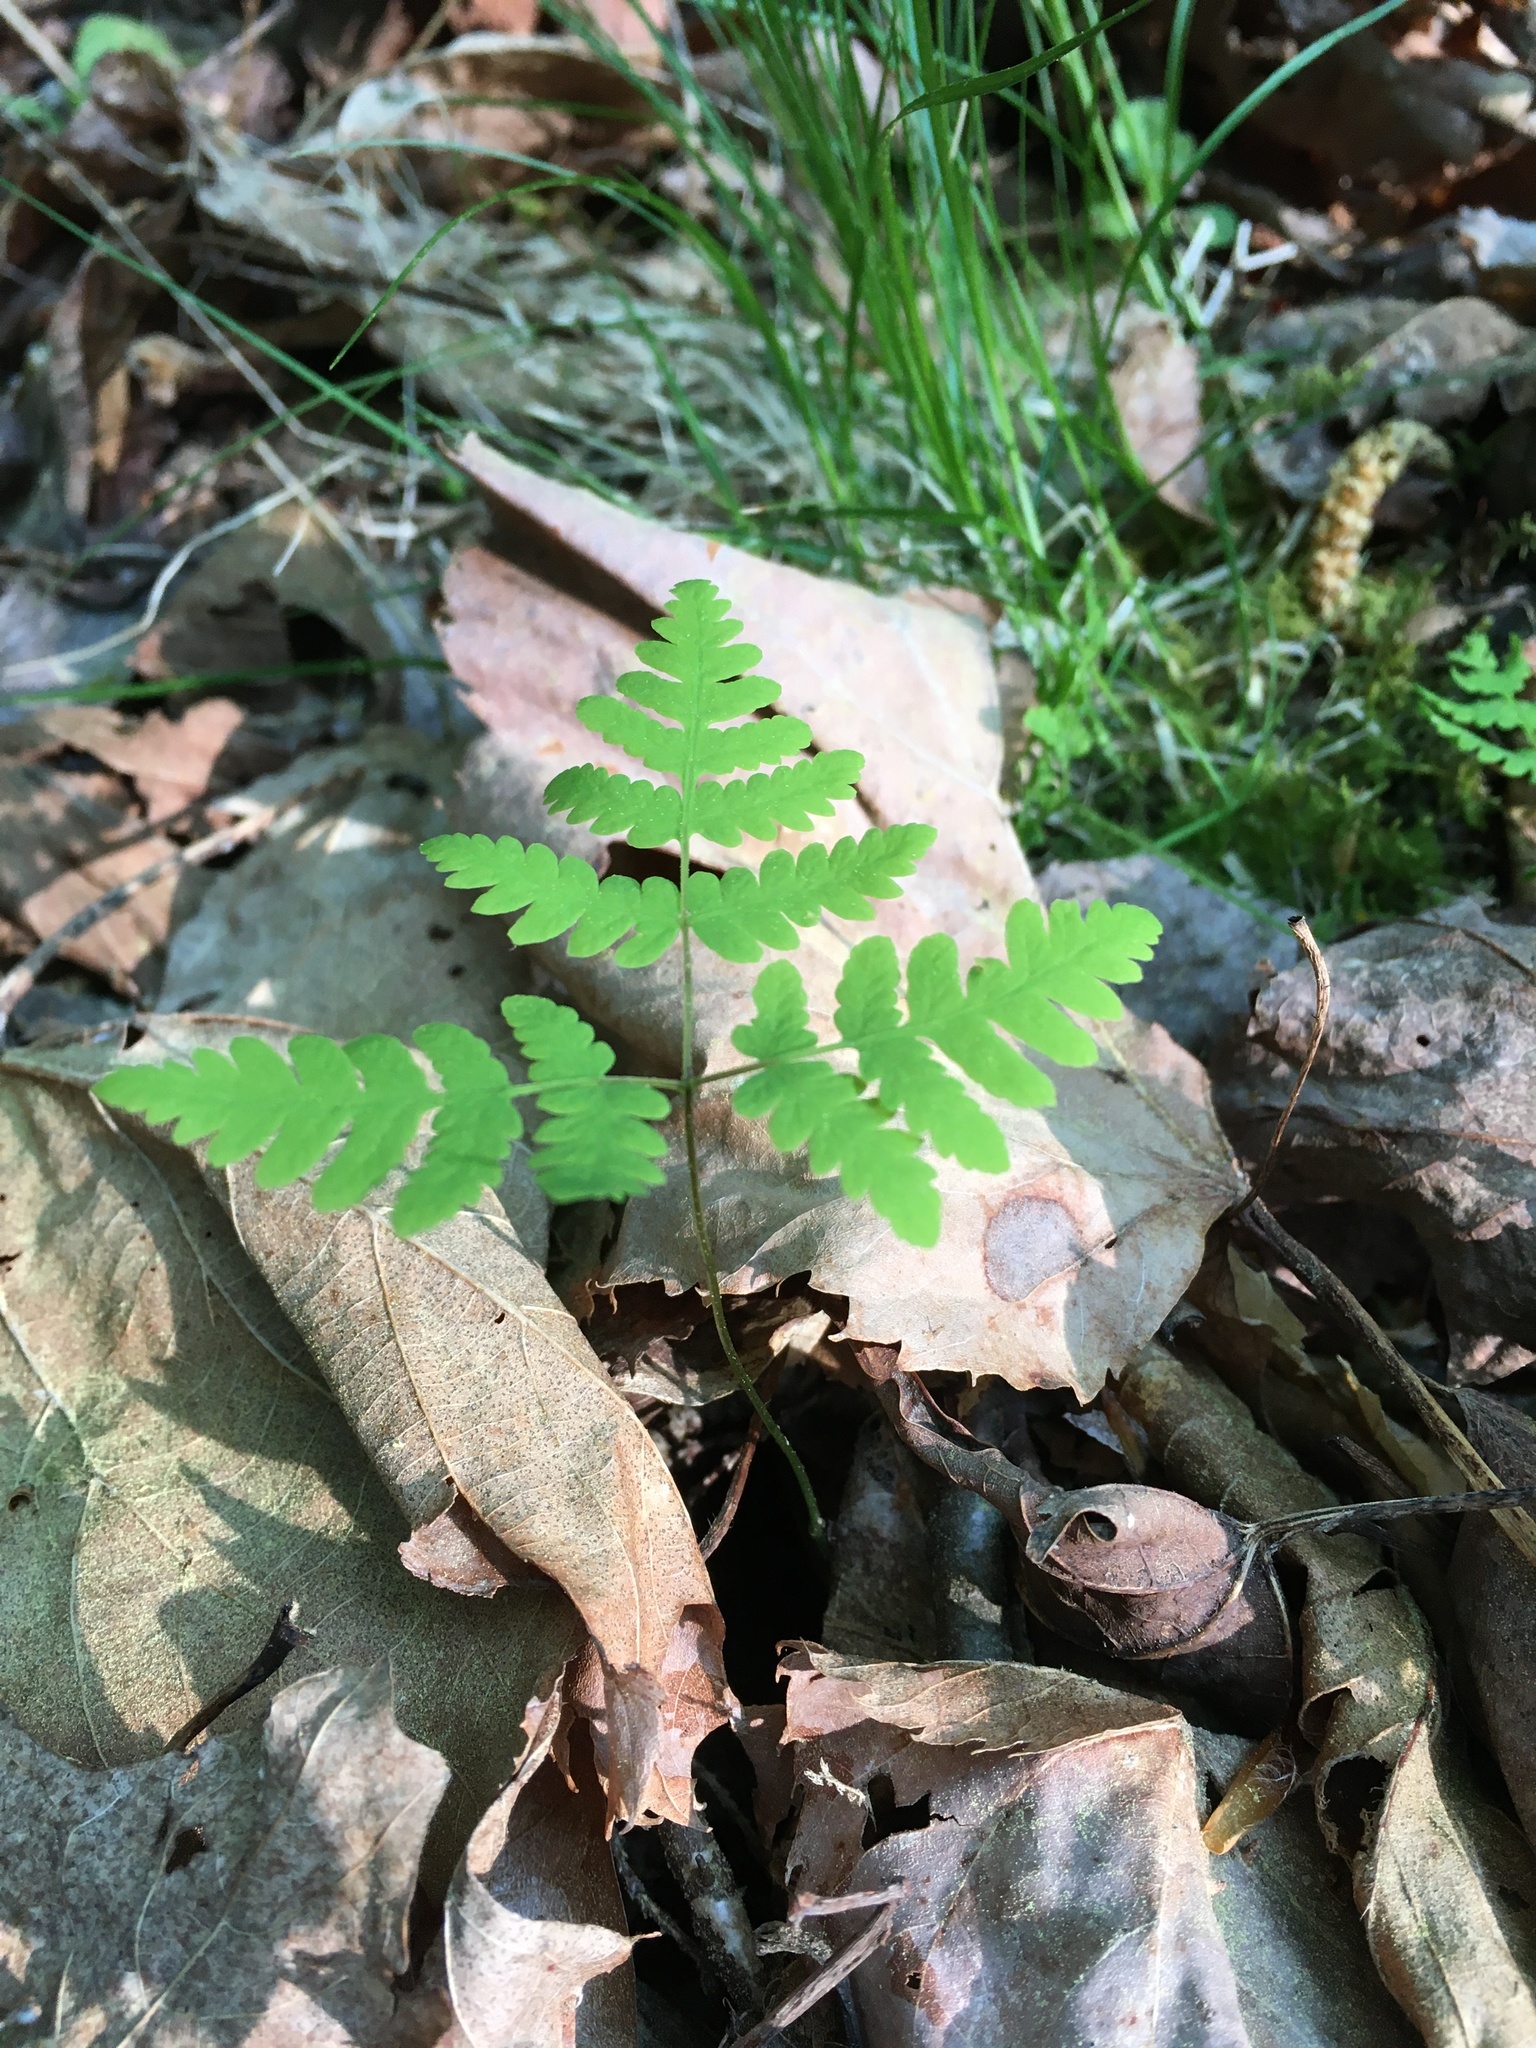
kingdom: Plantae
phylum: Tracheophyta
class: Polypodiopsida
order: Polypodiales
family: Cystopteridaceae
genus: Gymnocarpium
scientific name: Gymnocarpium dryopteris
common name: Oak fern
